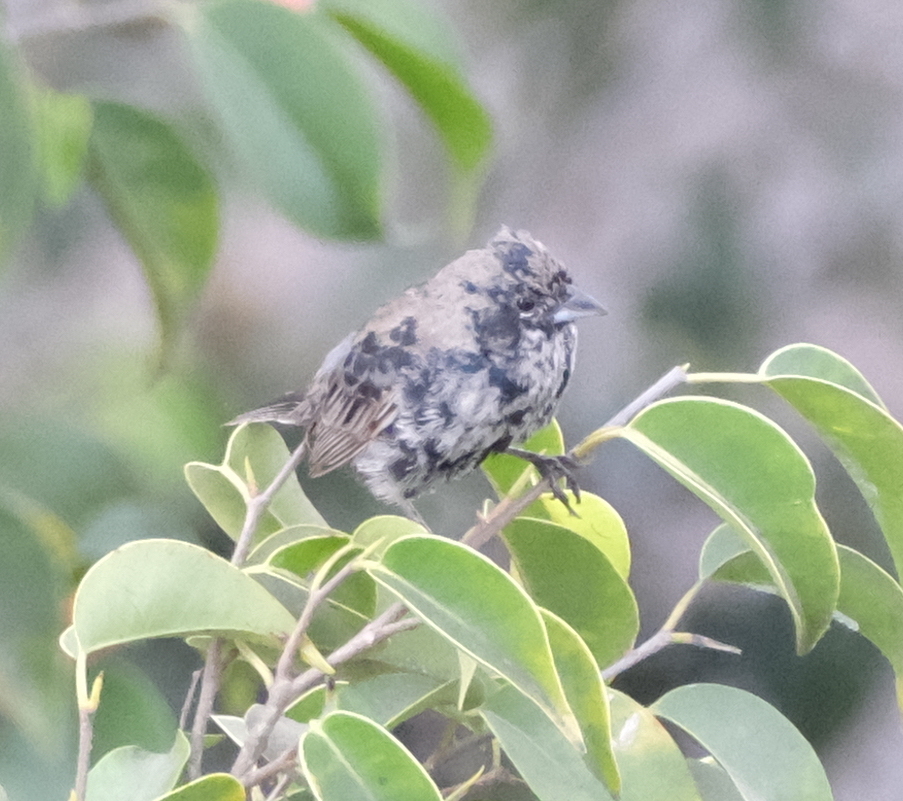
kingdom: Animalia
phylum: Chordata
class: Aves
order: Passeriformes
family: Thraupidae
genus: Volatinia
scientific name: Volatinia jacarina
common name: Blue-black grassquit
